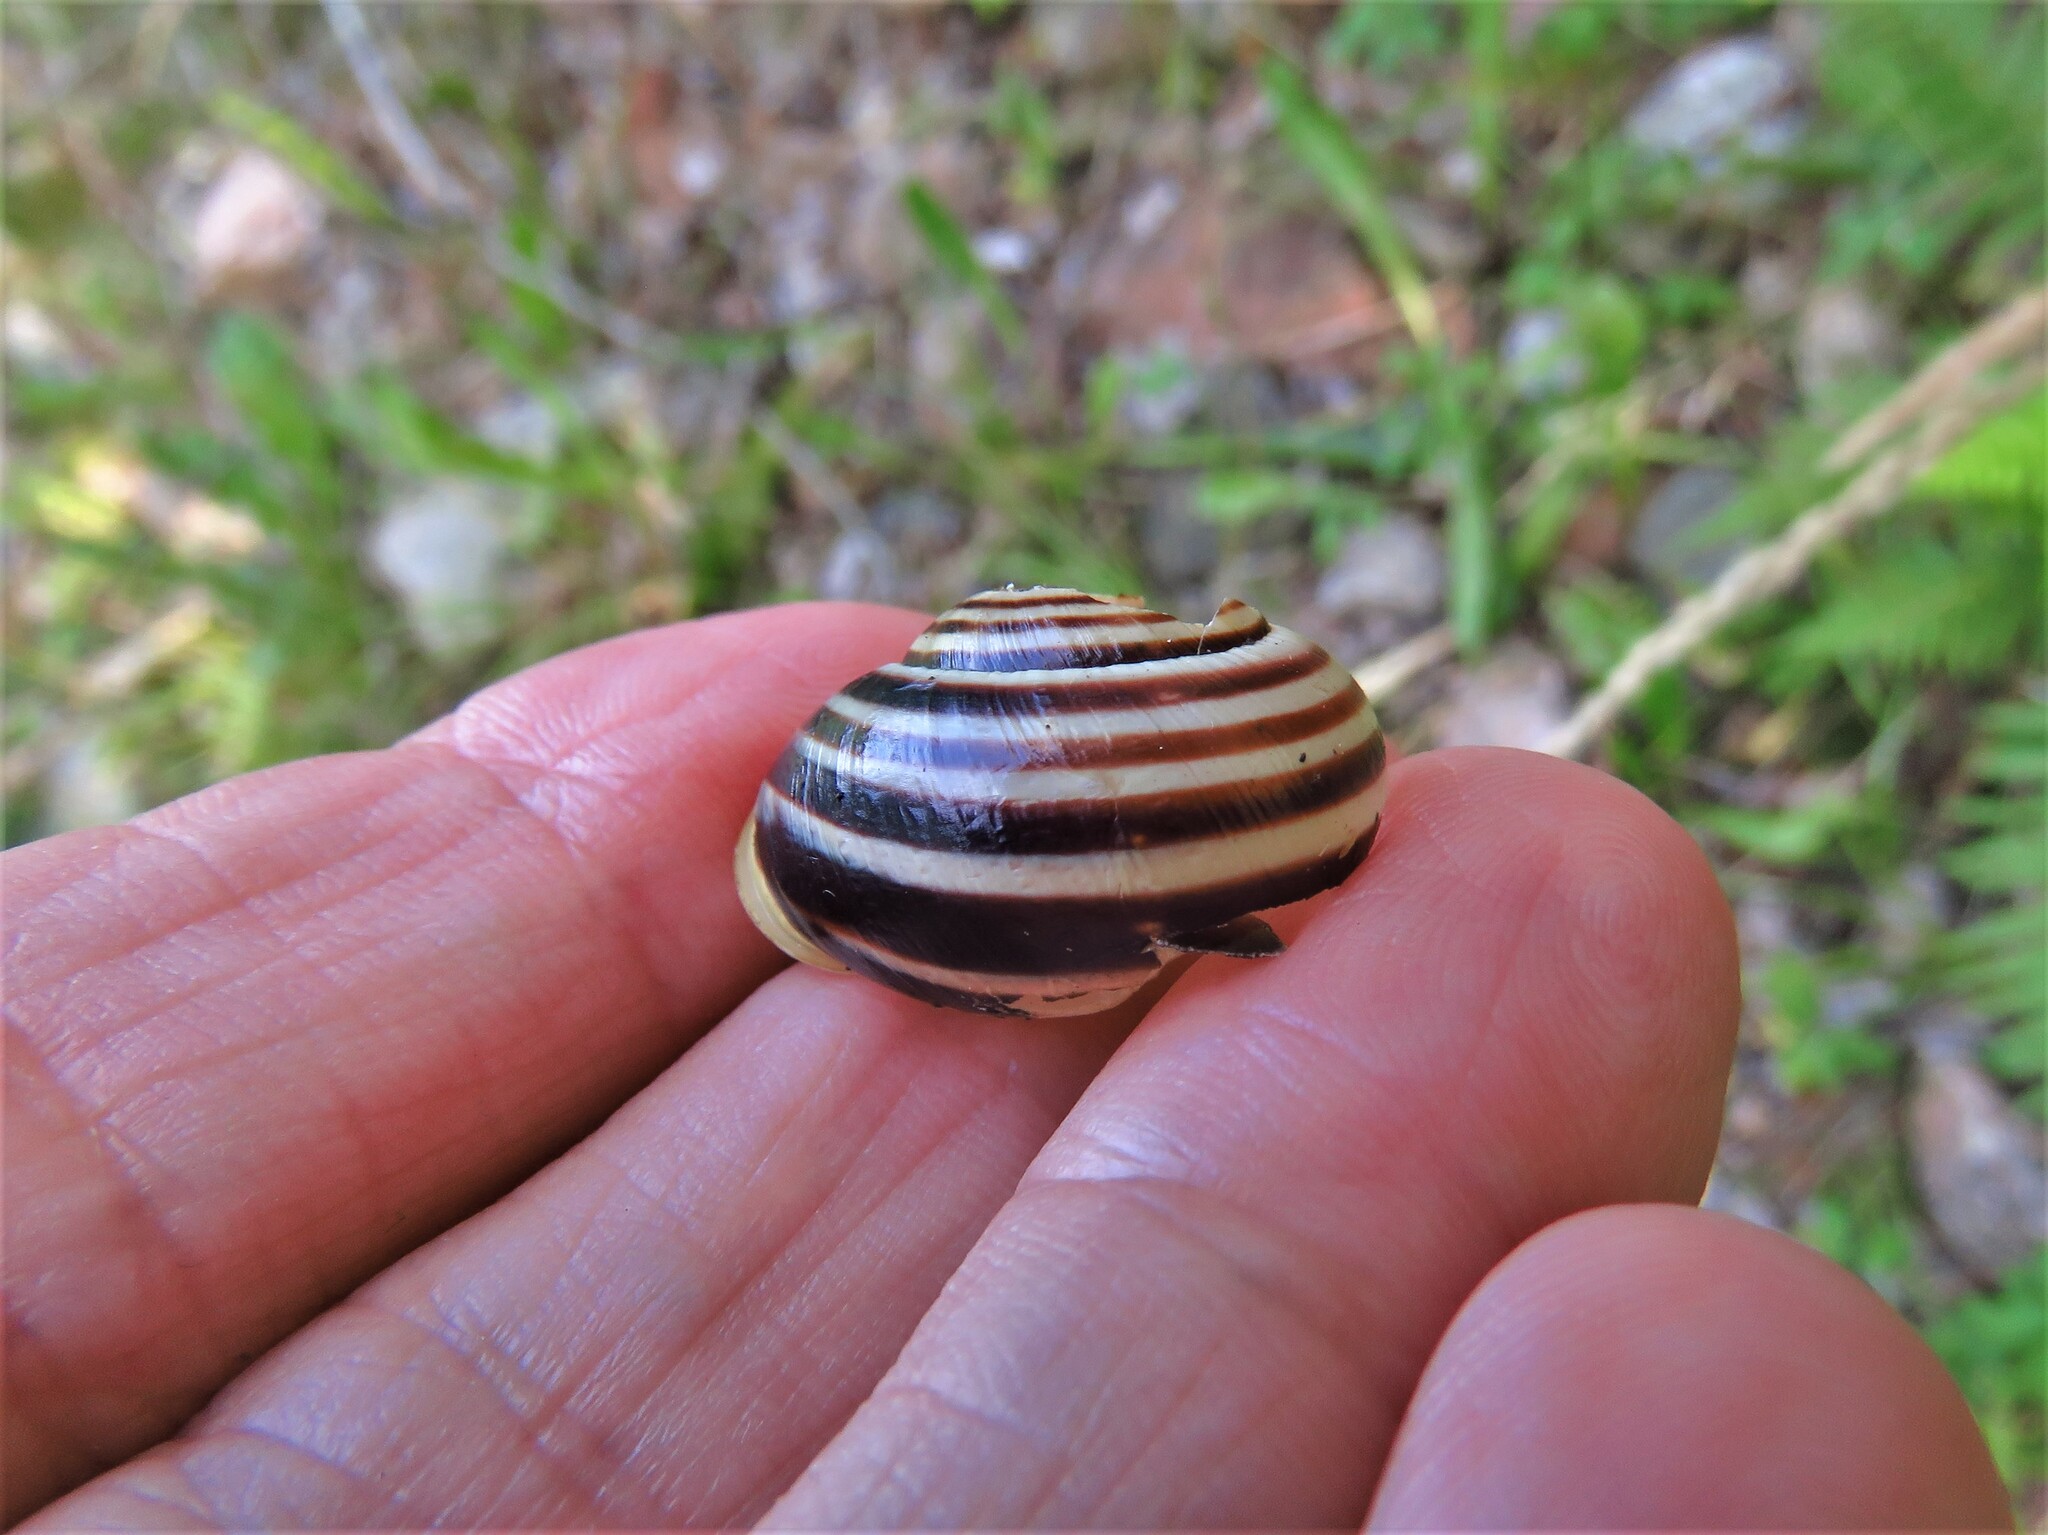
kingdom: Animalia
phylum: Mollusca
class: Gastropoda
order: Stylommatophora
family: Helicidae
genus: Cepaea
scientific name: Cepaea hortensis
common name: White-lip gardensnail
